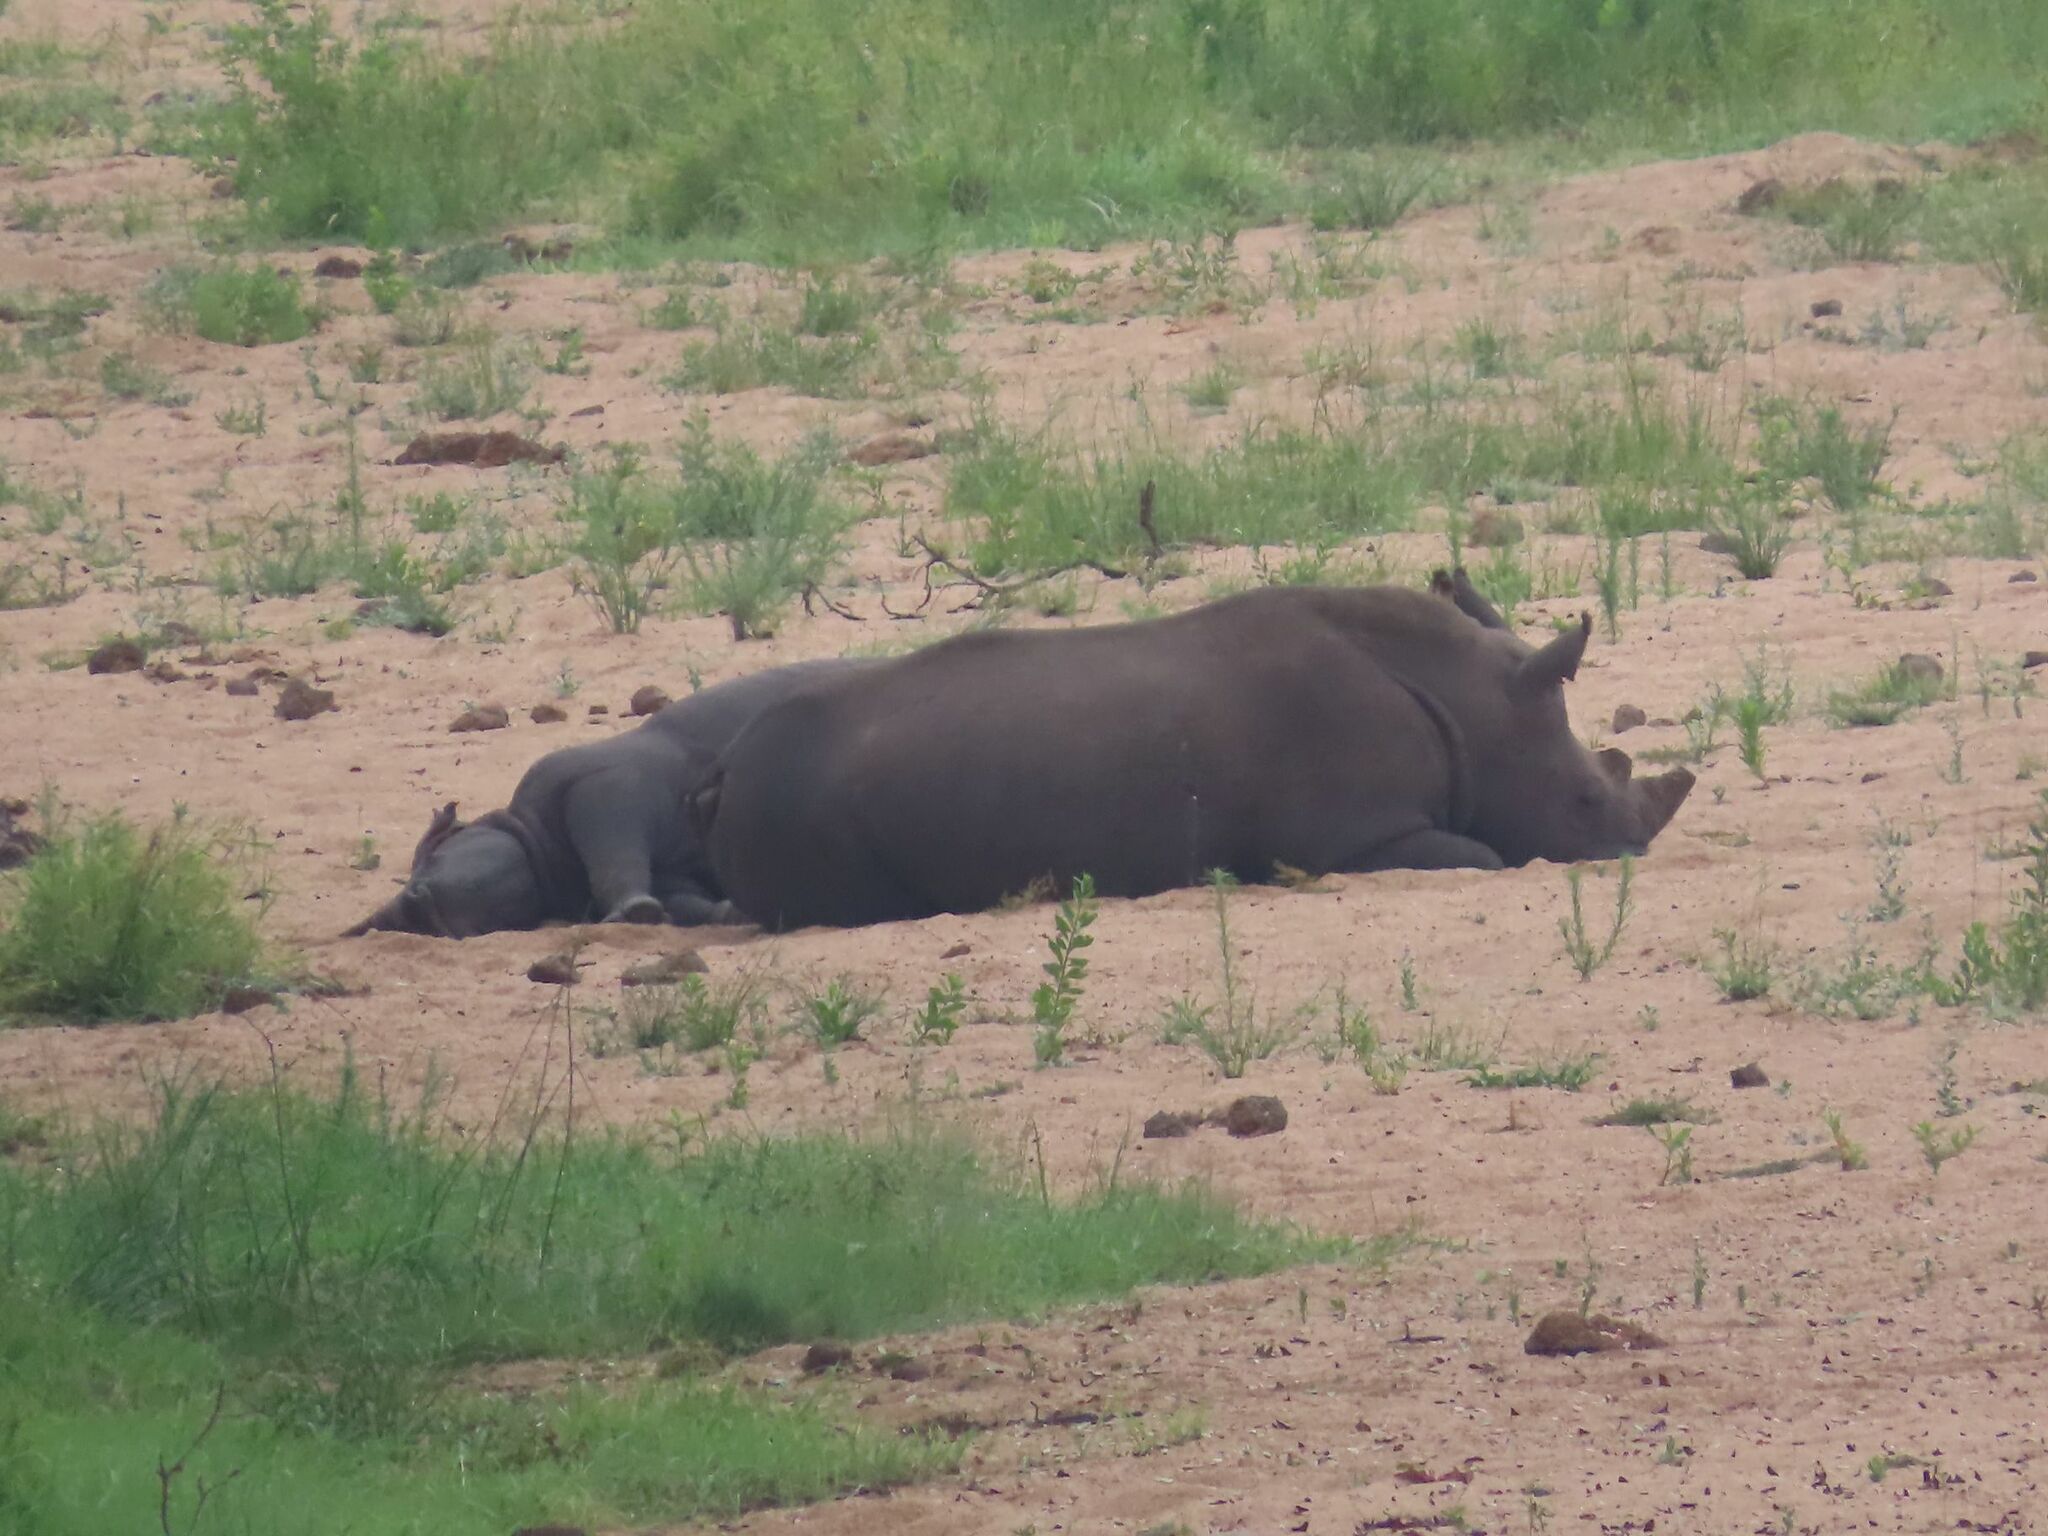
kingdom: Animalia
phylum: Chordata
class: Mammalia
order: Perissodactyla
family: Rhinocerotidae
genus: Ceratotherium
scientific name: Ceratotherium simum
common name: White rhinoceros
